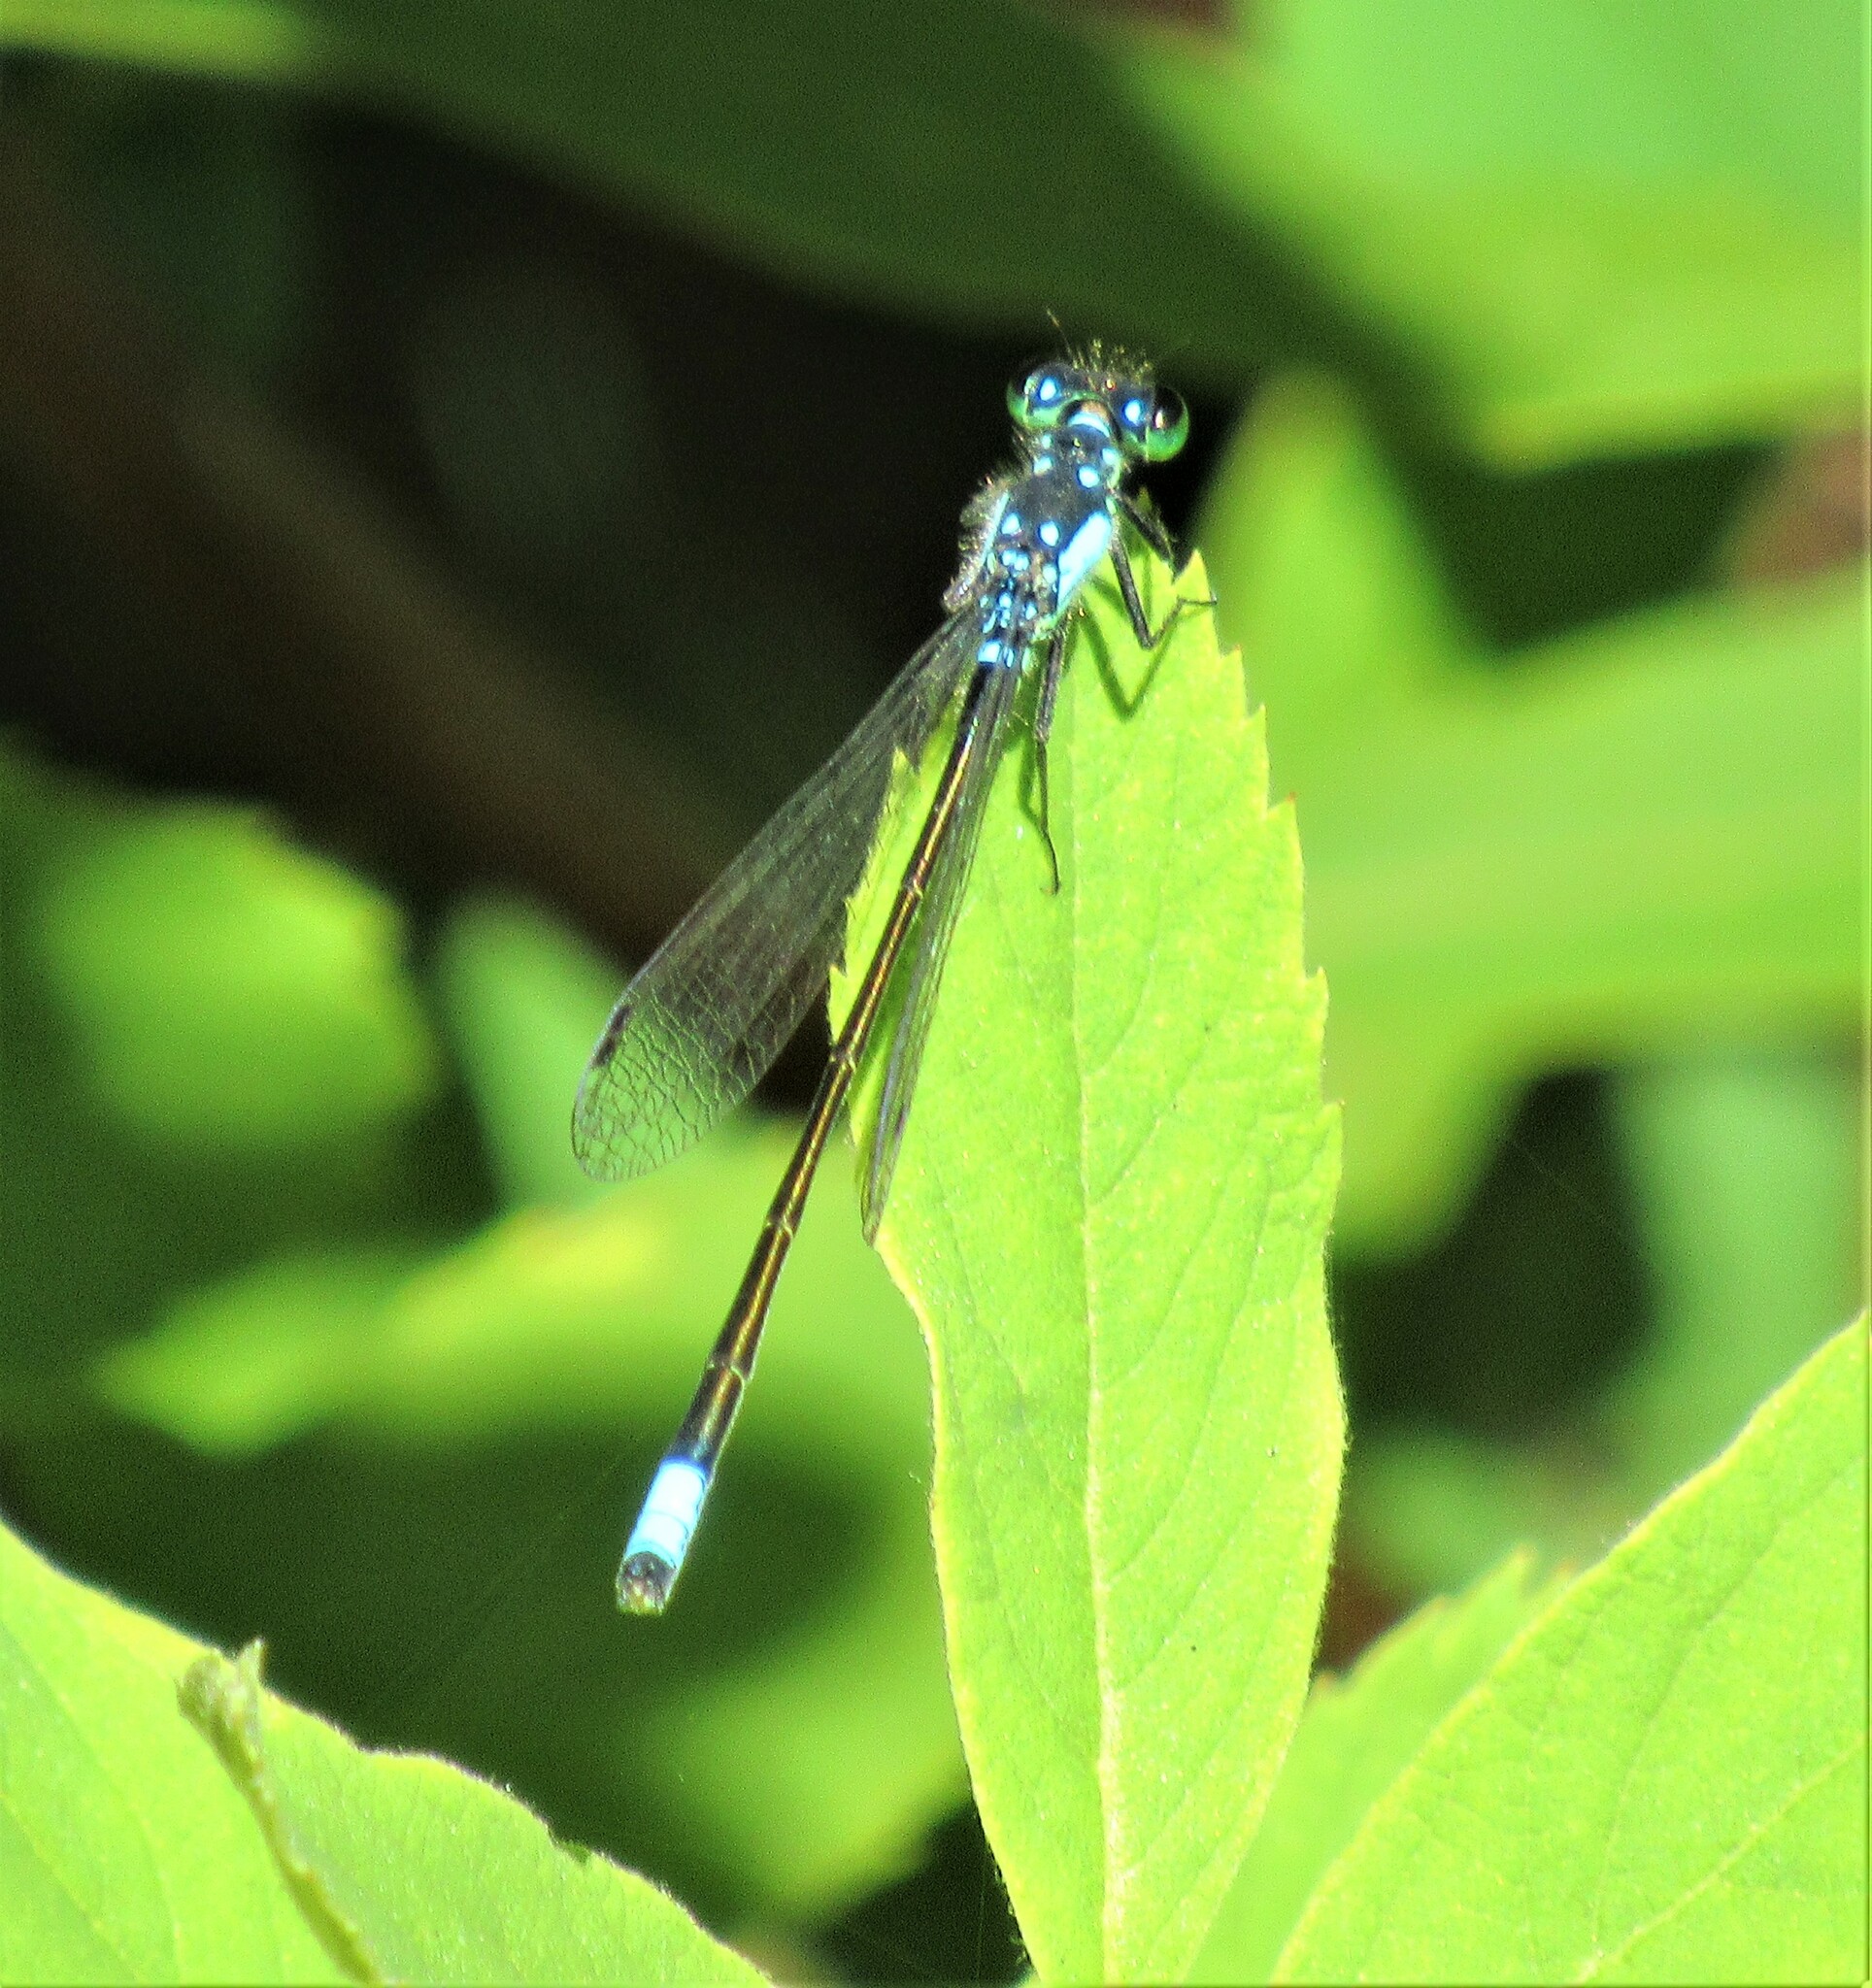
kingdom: Animalia
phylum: Arthropoda
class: Insecta
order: Odonata
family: Coenagrionidae
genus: Ischnura
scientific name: Ischnura cervula
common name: Pacific forktail
